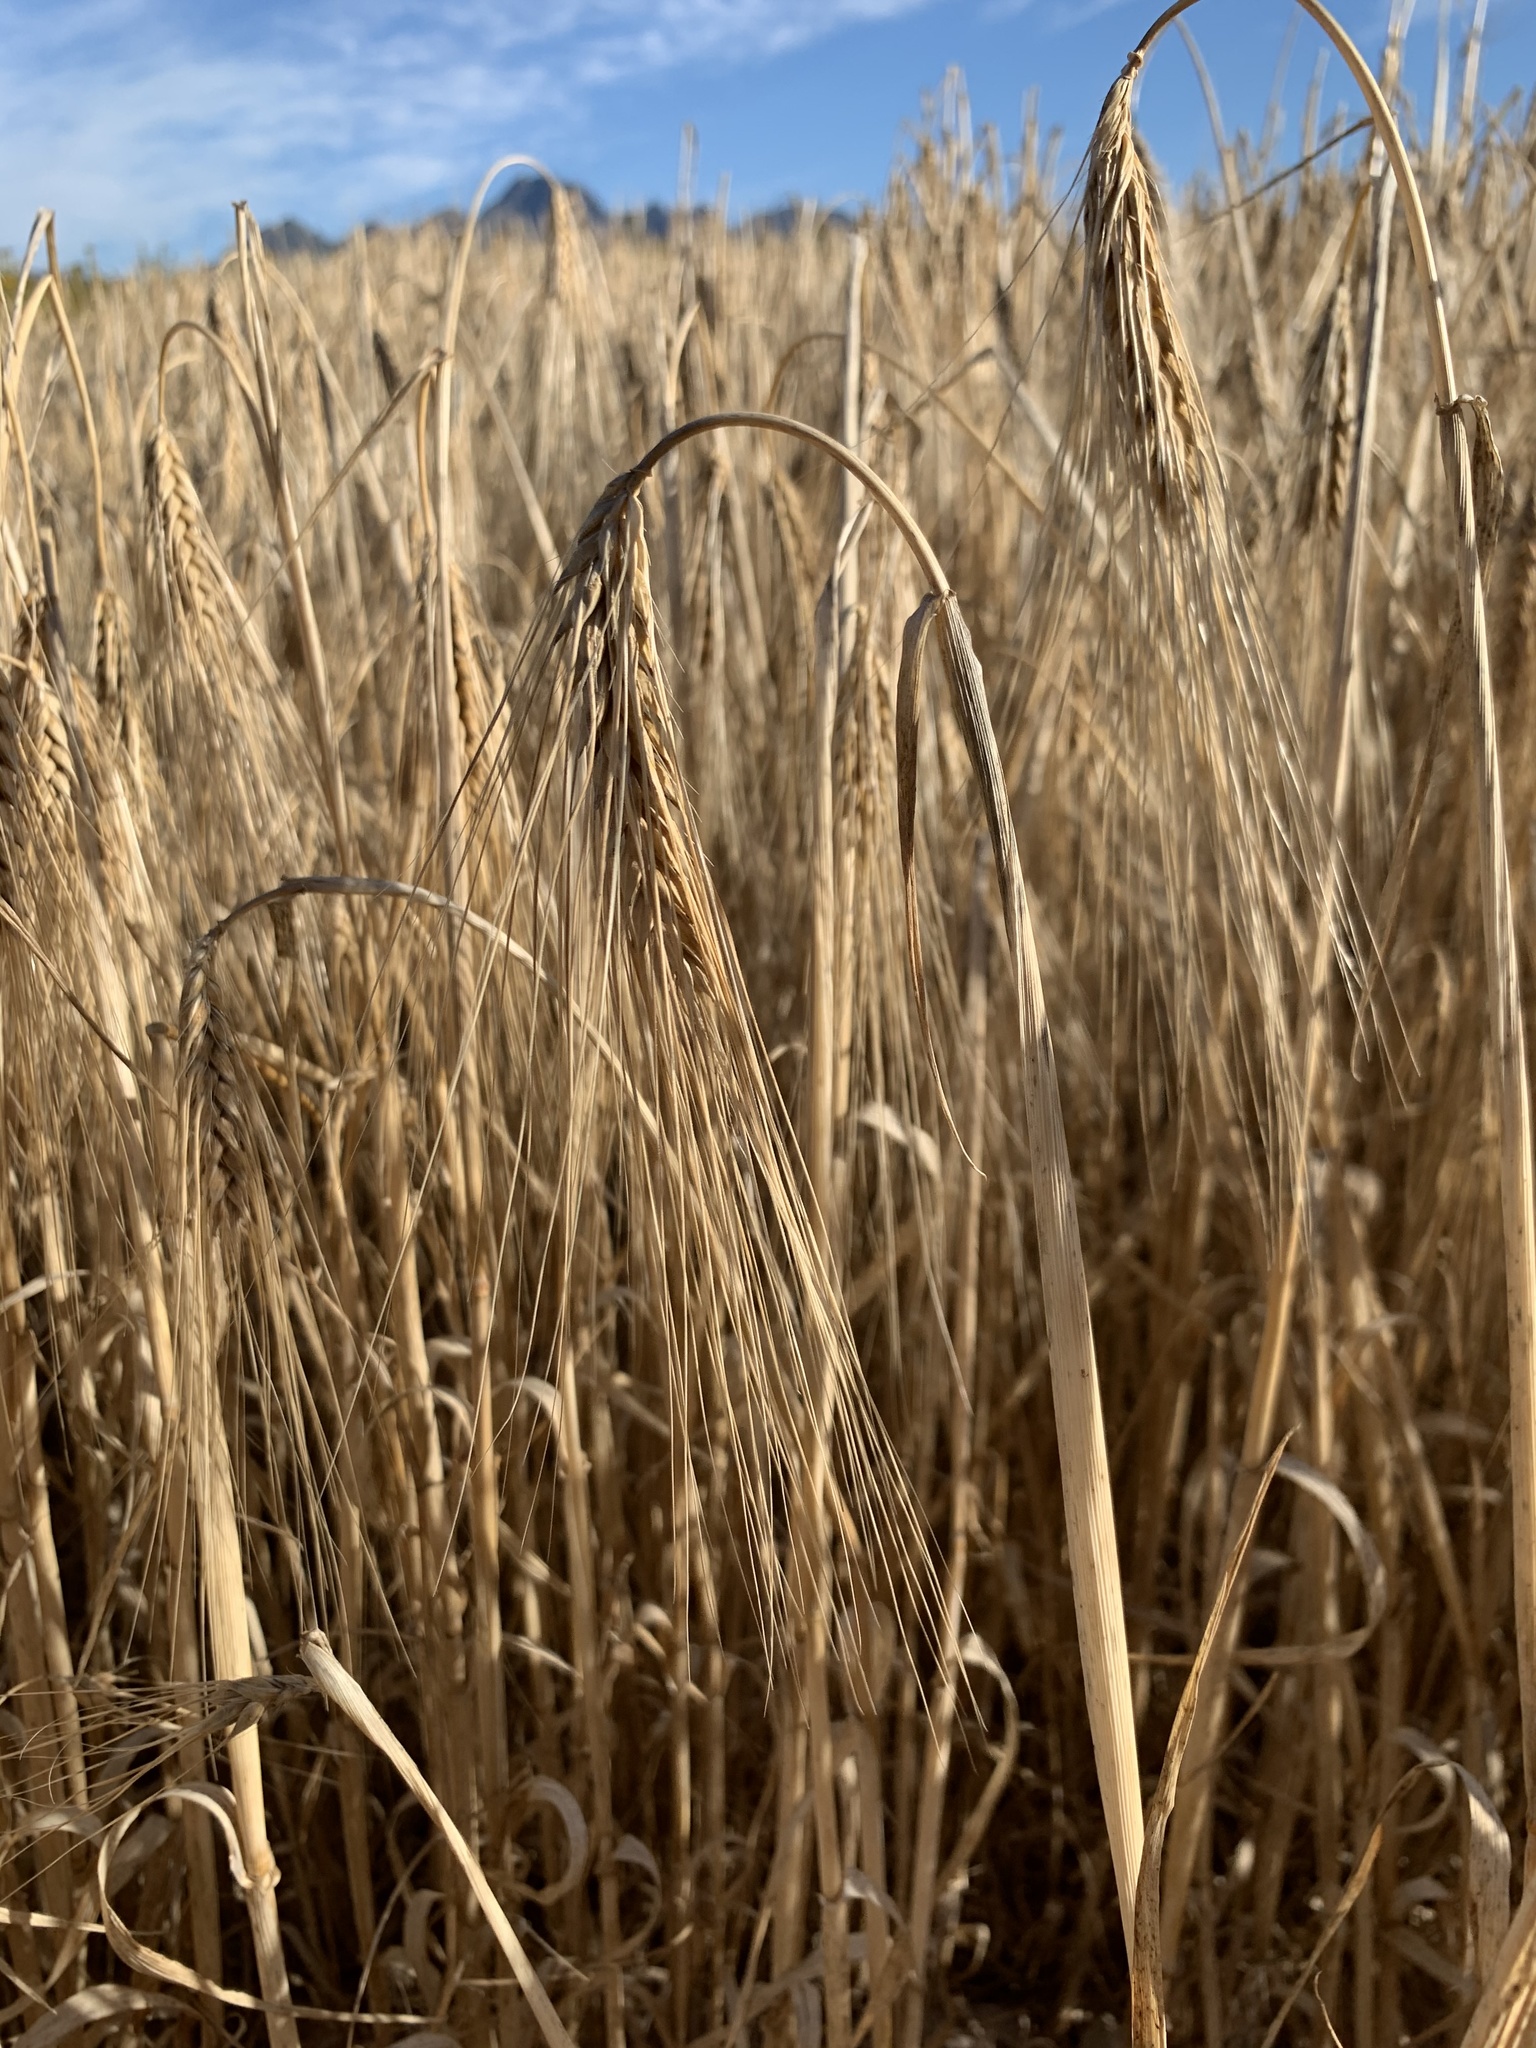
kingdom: Plantae
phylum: Tracheophyta
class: Liliopsida
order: Poales
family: Poaceae
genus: Triticum
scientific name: Triticum aestivum
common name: Common wheat
